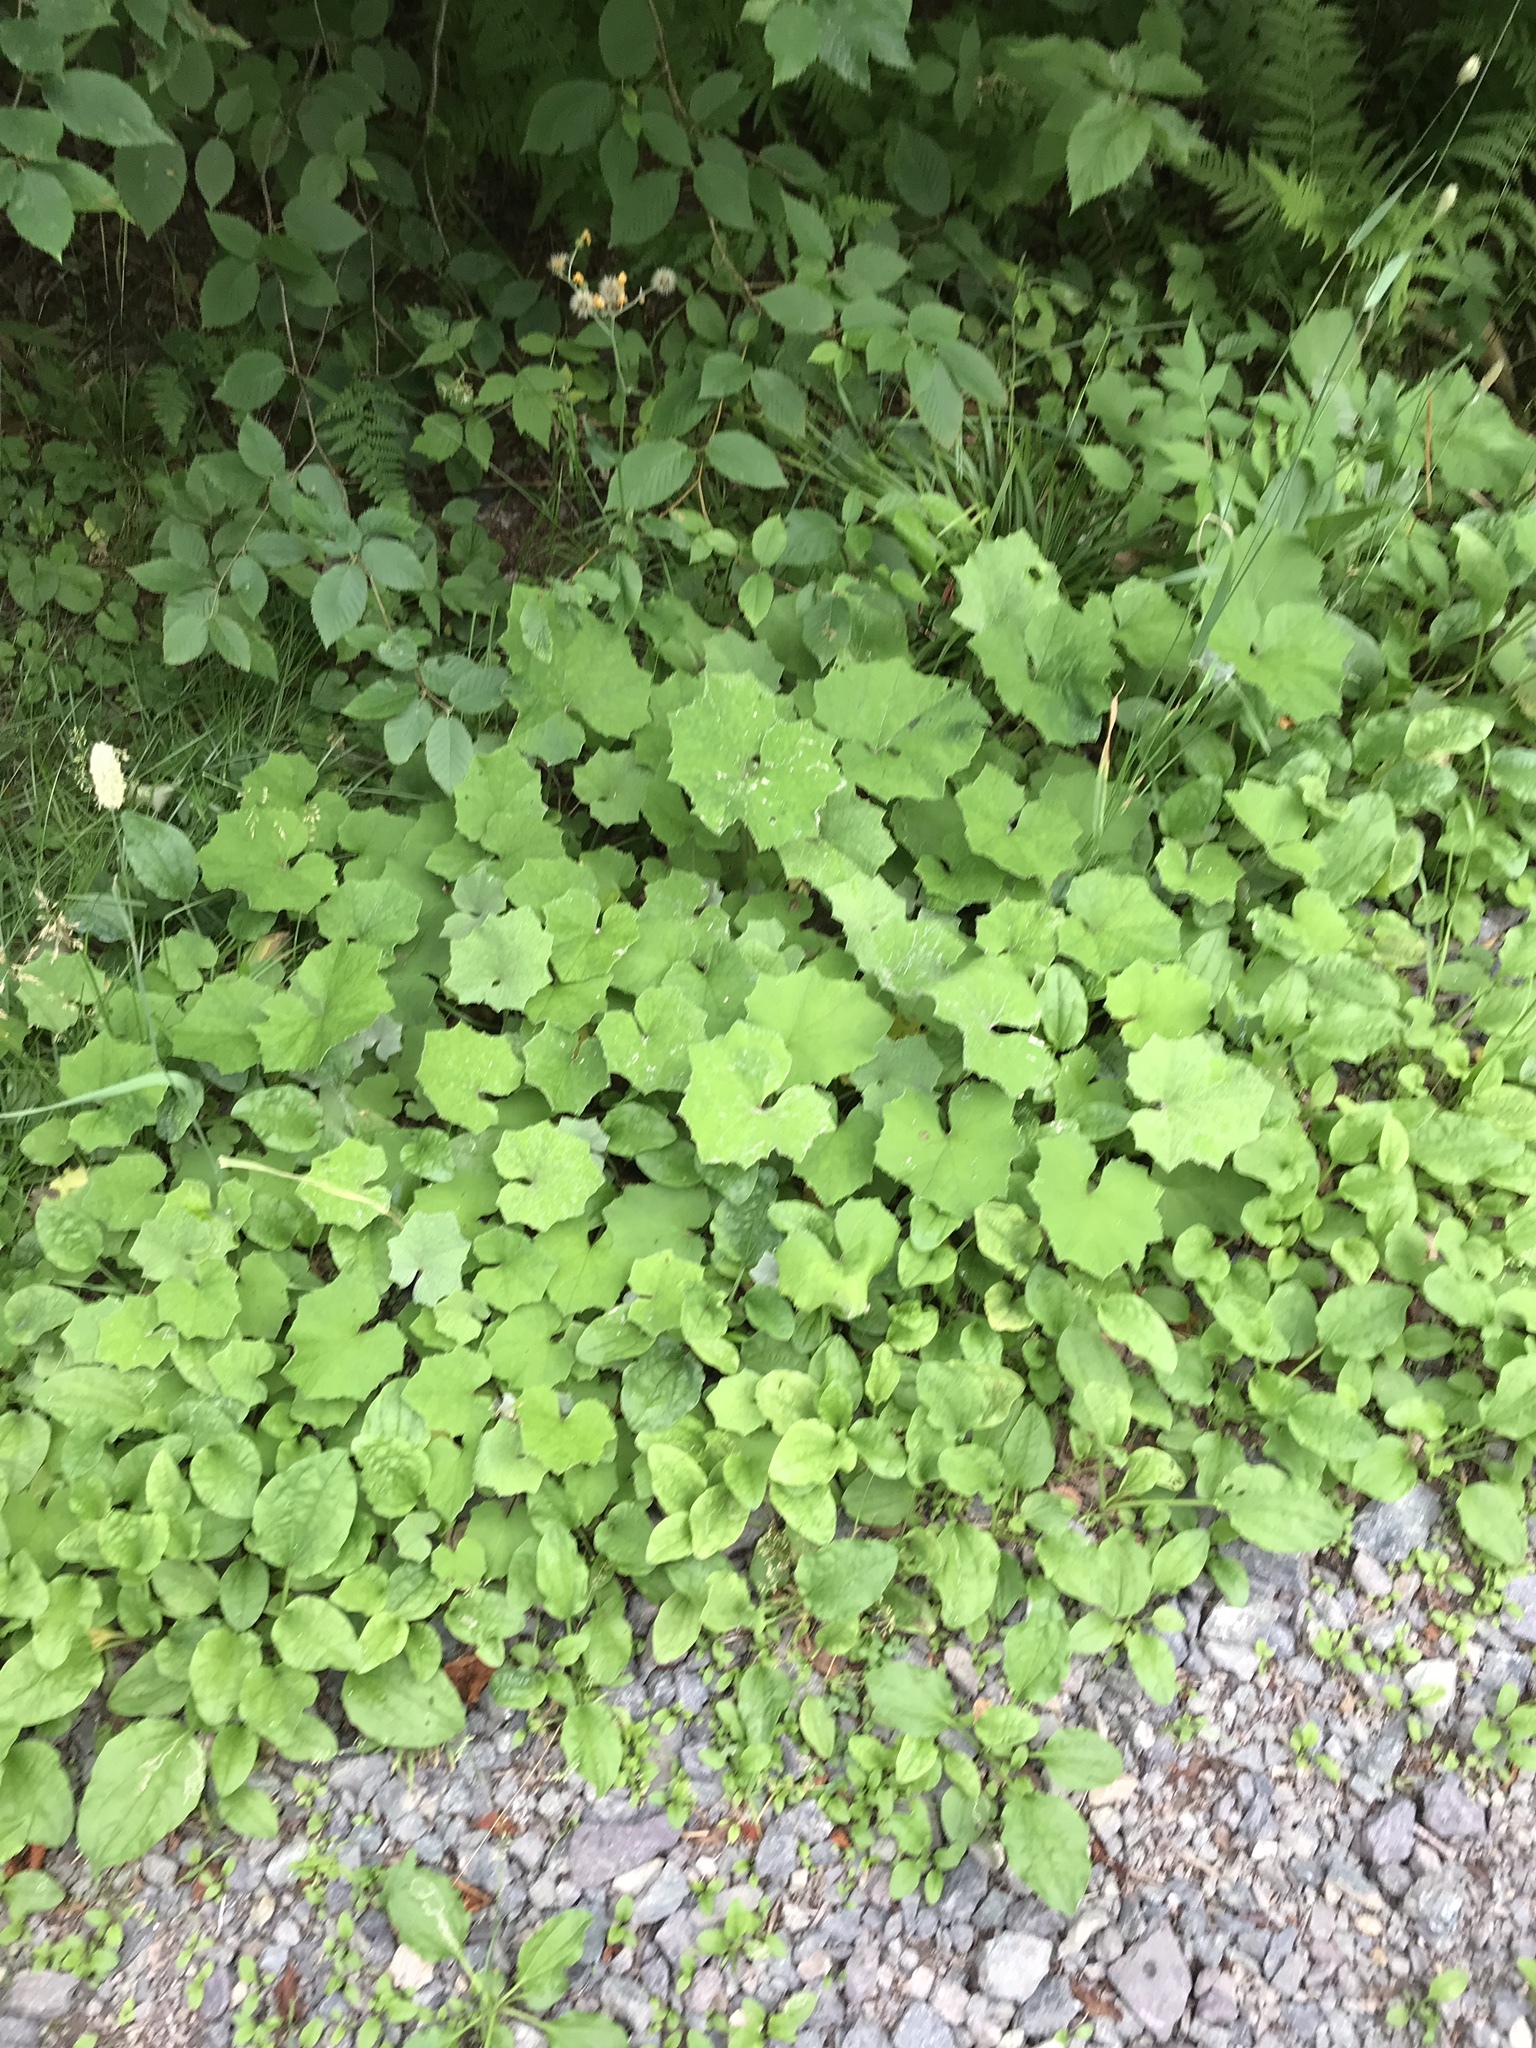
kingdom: Plantae
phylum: Tracheophyta
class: Magnoliopsida
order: Asterales
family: Asteraceae
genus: Tussilago
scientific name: Tussilago farfara
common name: Coltsfoot
